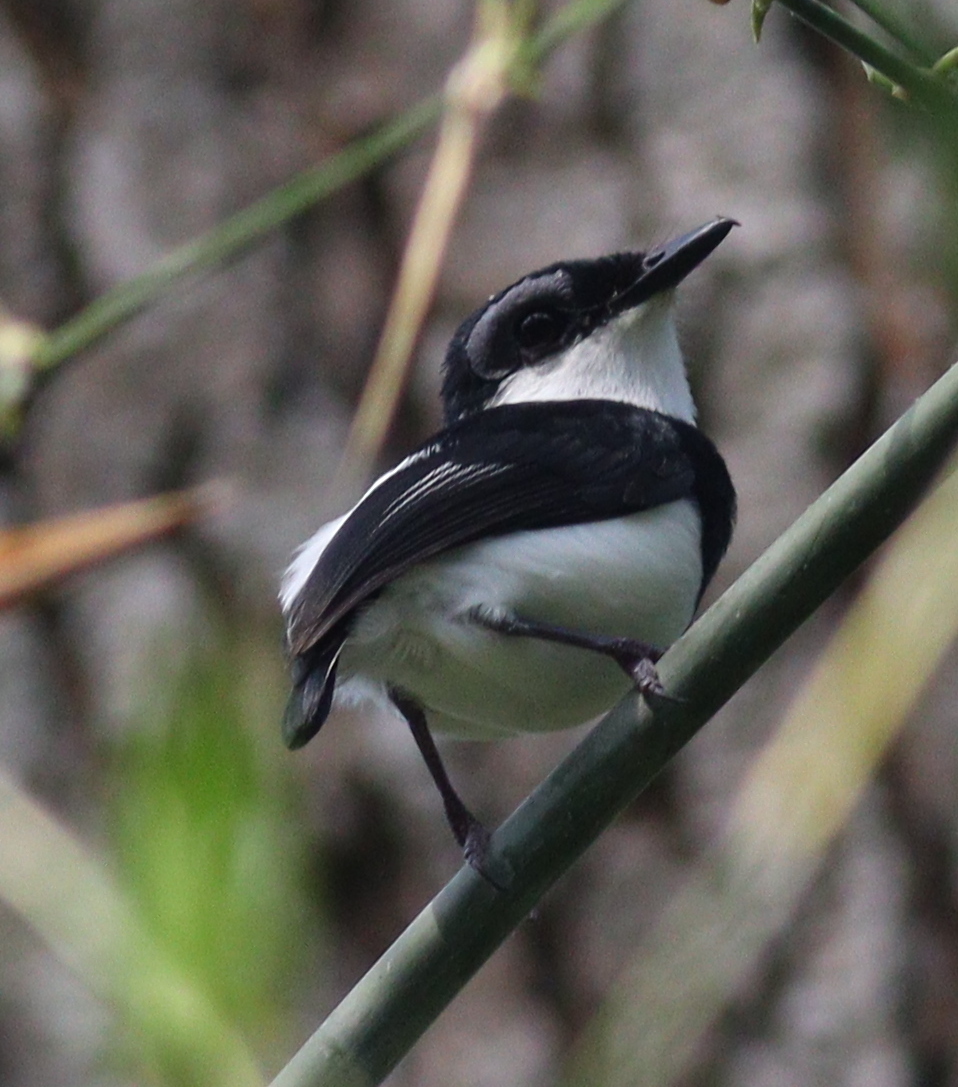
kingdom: Animalia
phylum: Chordata
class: Aves
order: Passeriformes
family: Platysteiridae
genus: Platysteira
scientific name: Platysteira hormophora
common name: West african wattle-eye
